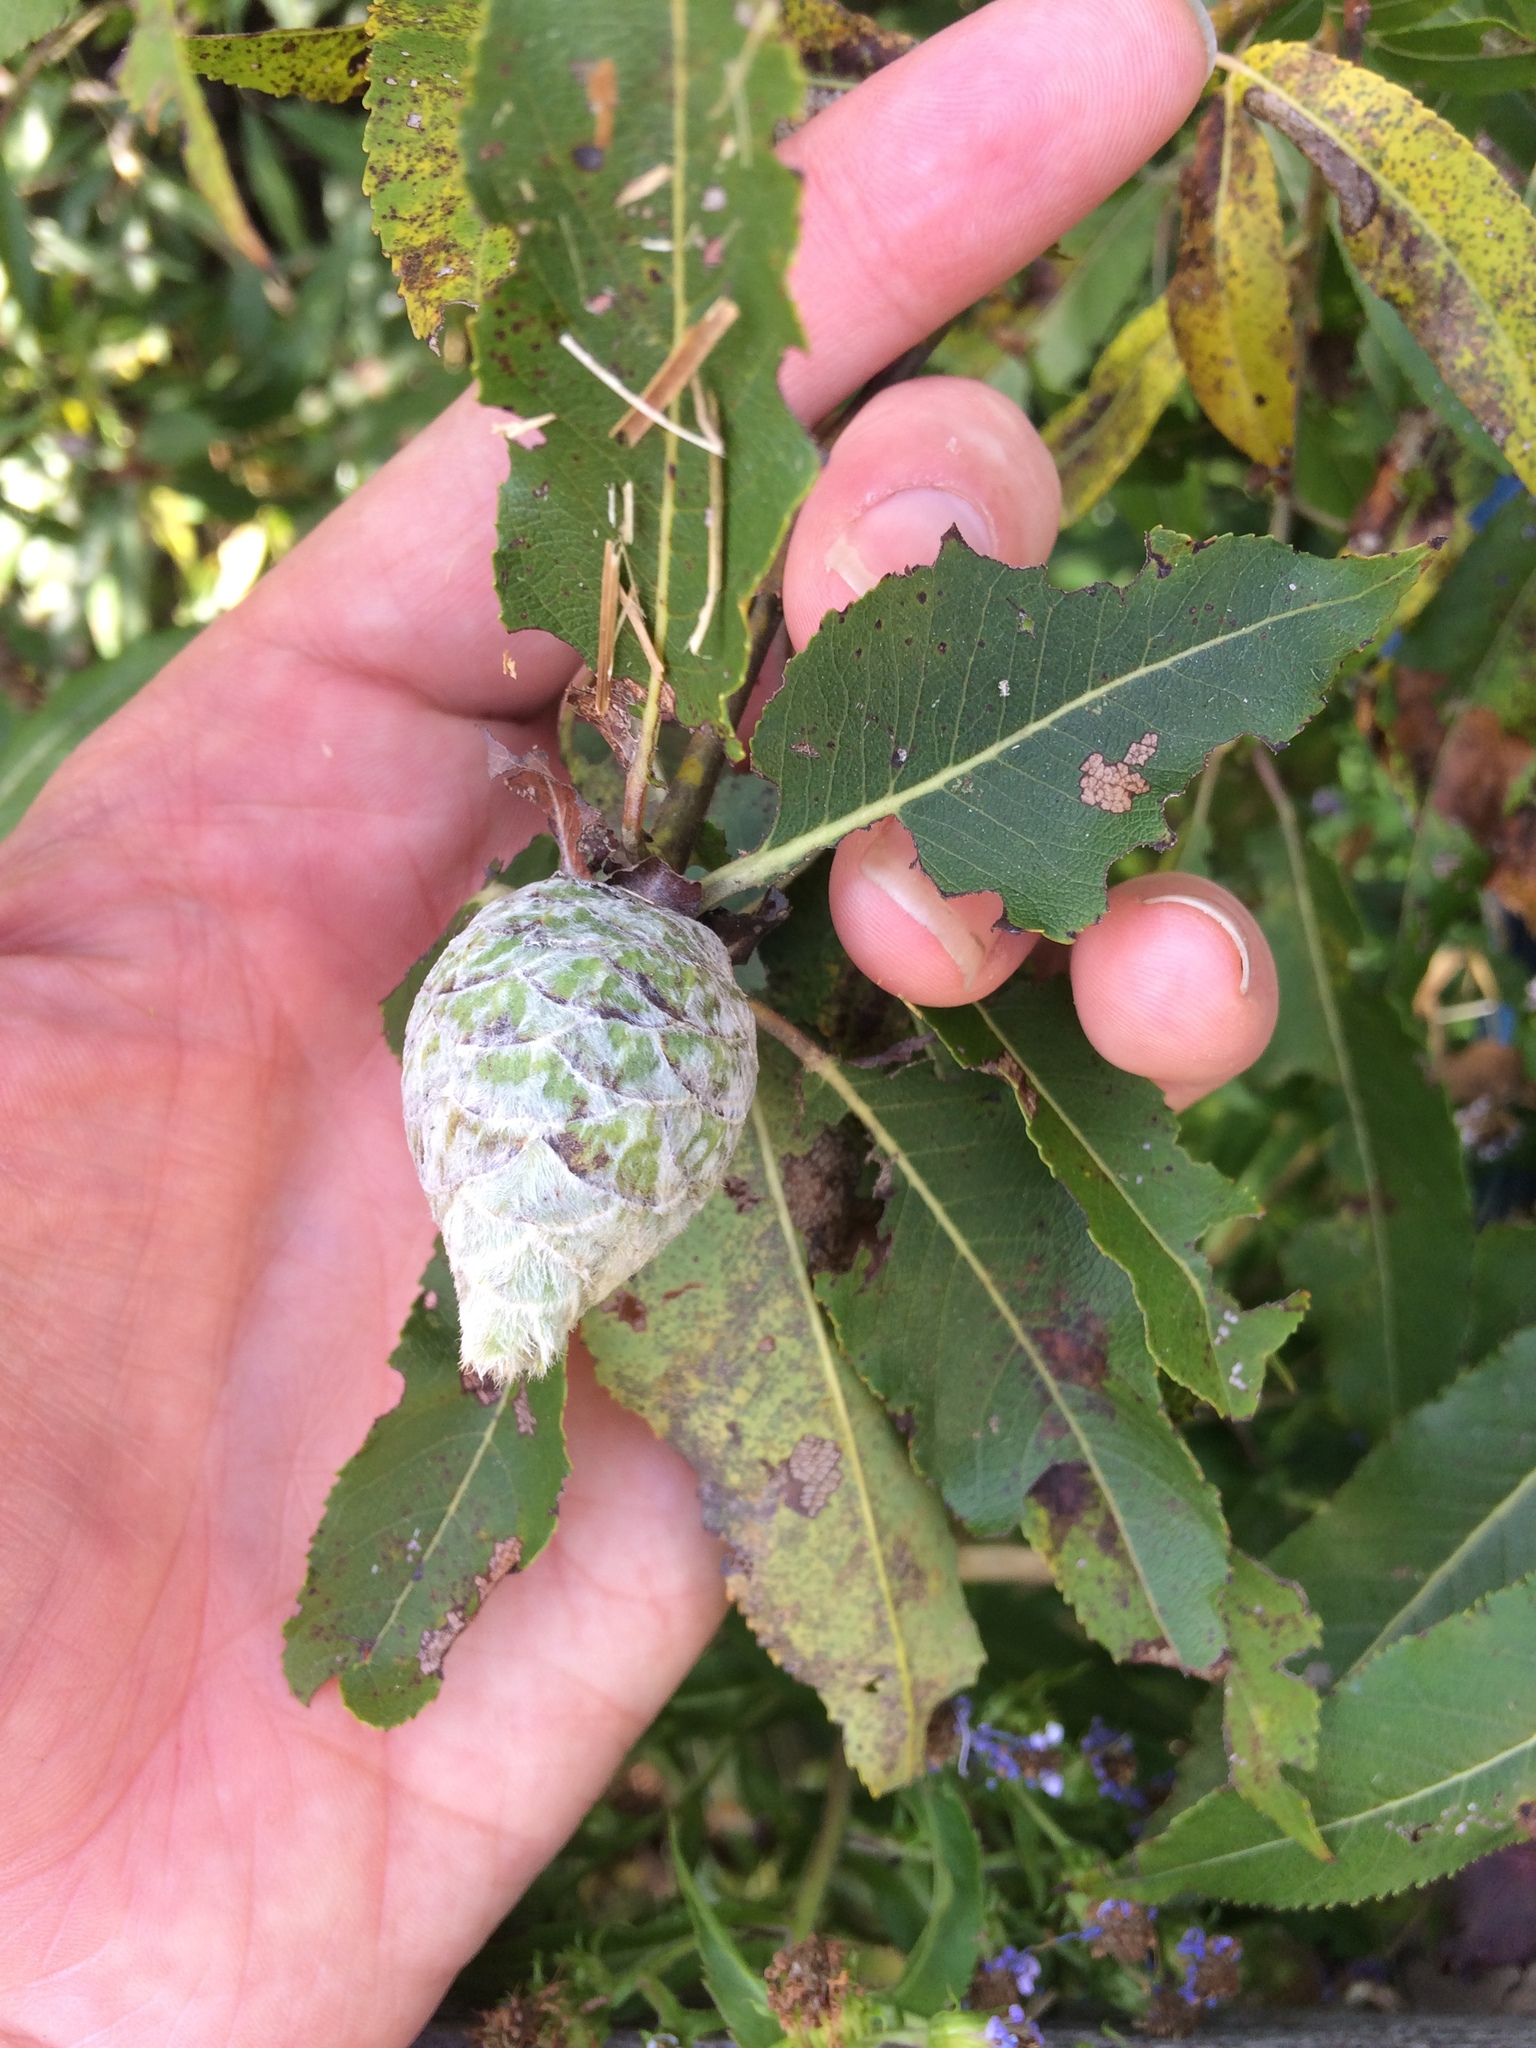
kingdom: Animalia
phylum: Arthropoda
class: Insecta
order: Diptera
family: Cecidomyiidae
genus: Rabdophaga
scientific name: Rabdophaga strobiloides
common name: Willow pinecone gall midge
